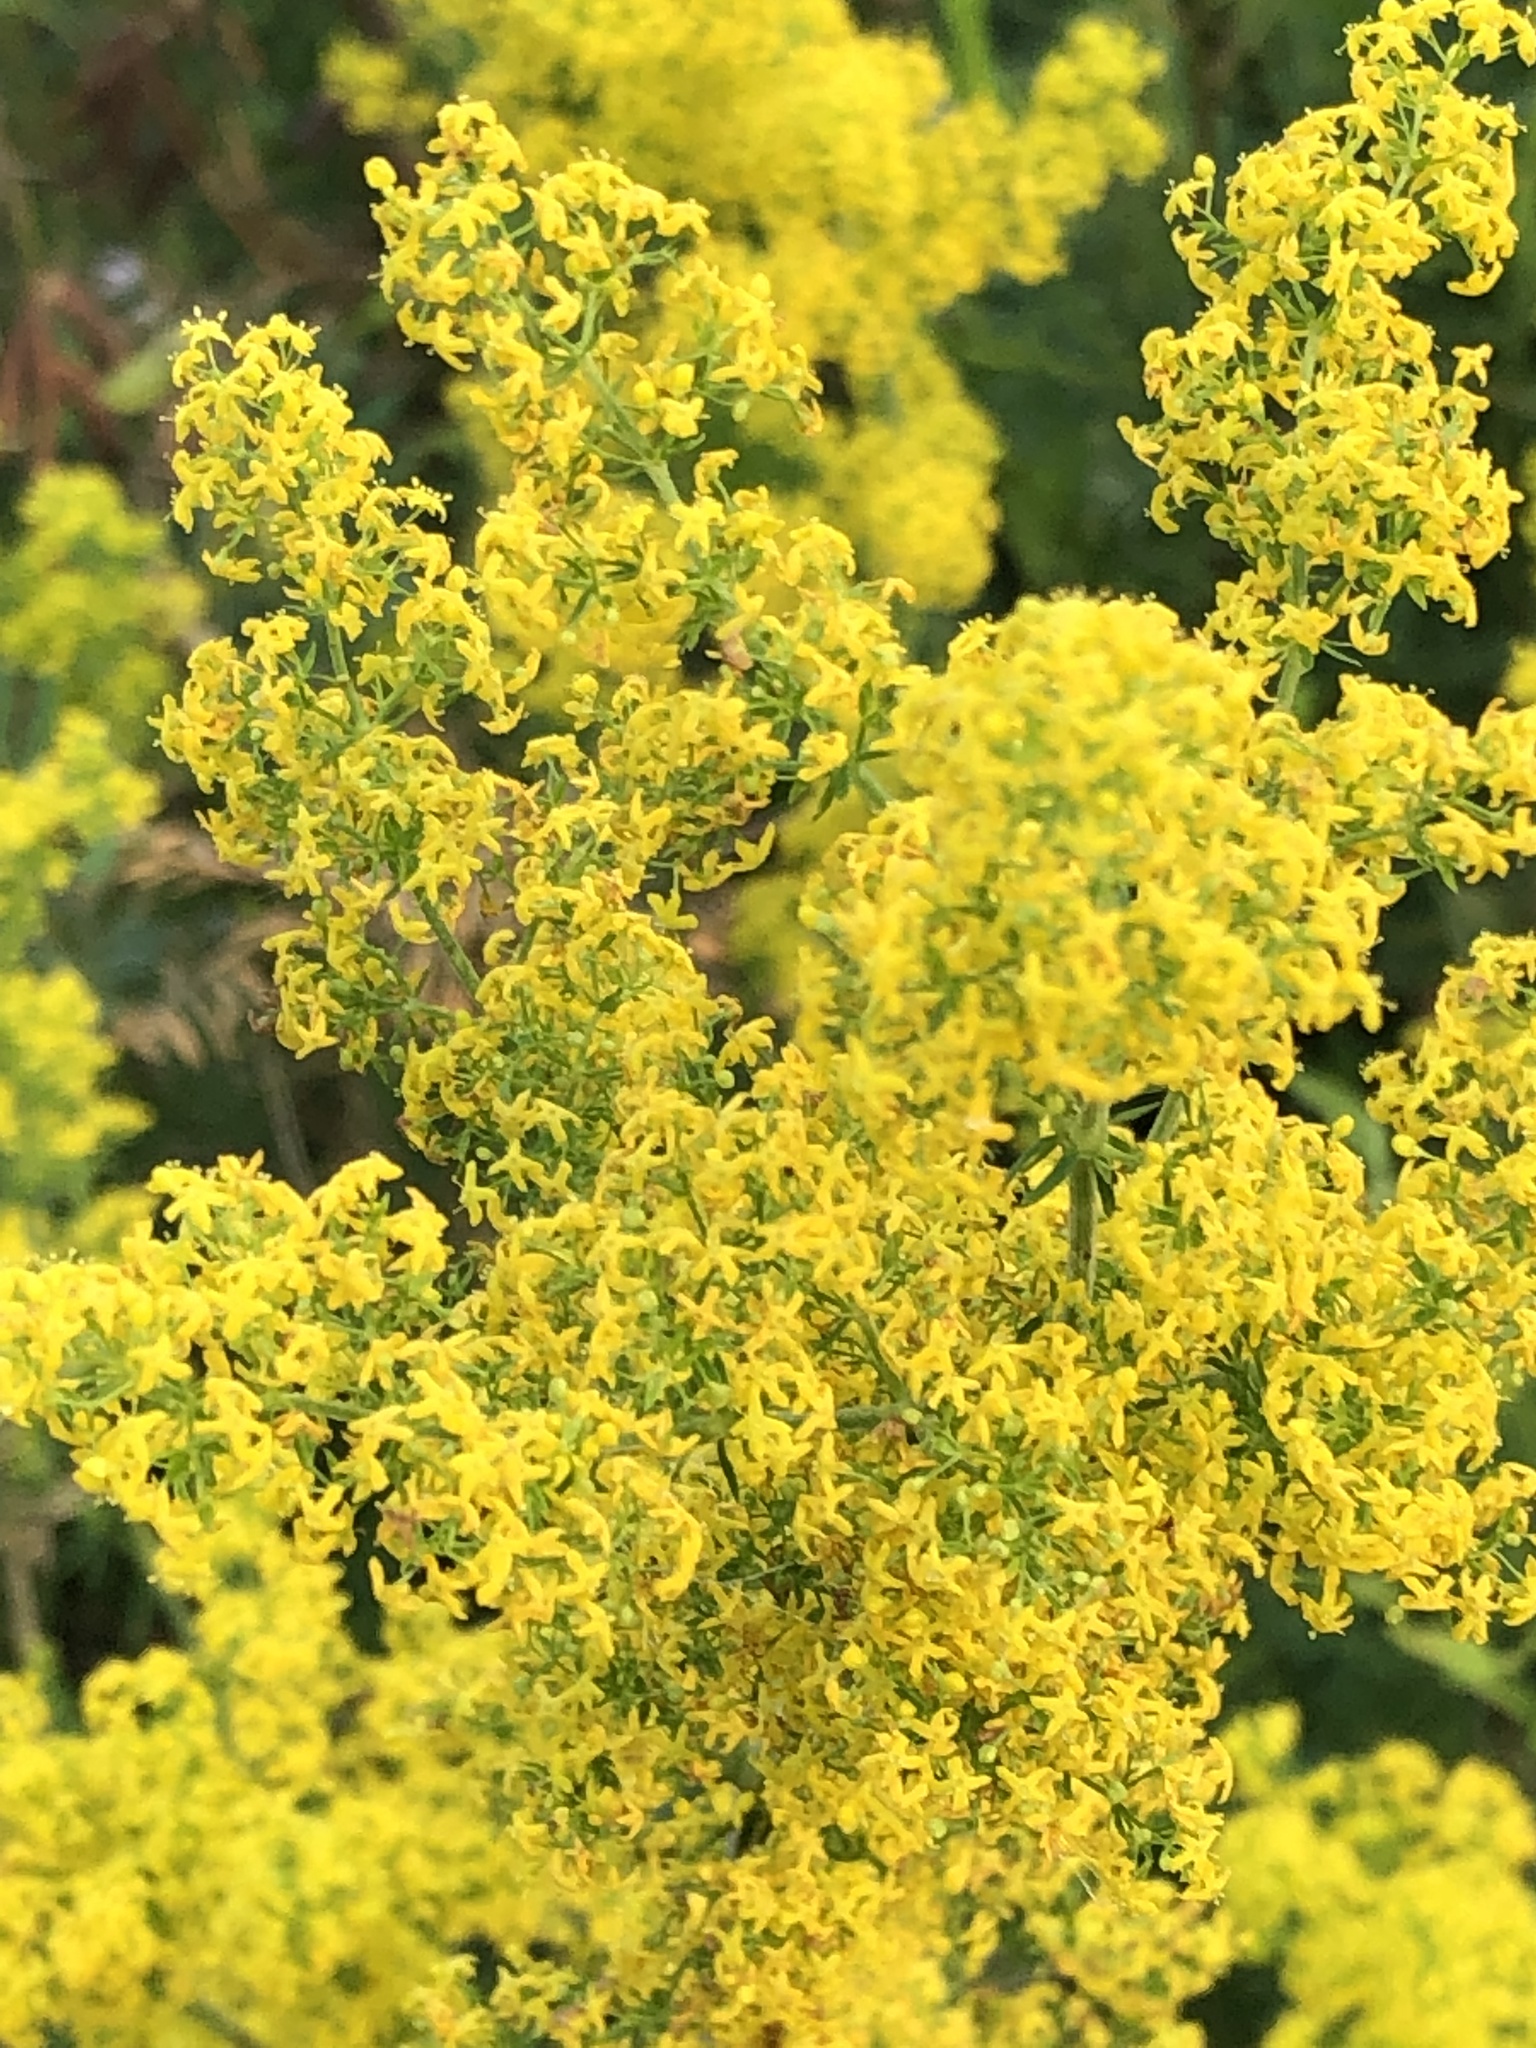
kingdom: Plantae
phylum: Tracheophyta
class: Magnoliopsida
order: Gentianales
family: Rubiaceae
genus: Galium
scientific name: Galium verum
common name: Lady's bedstraw
